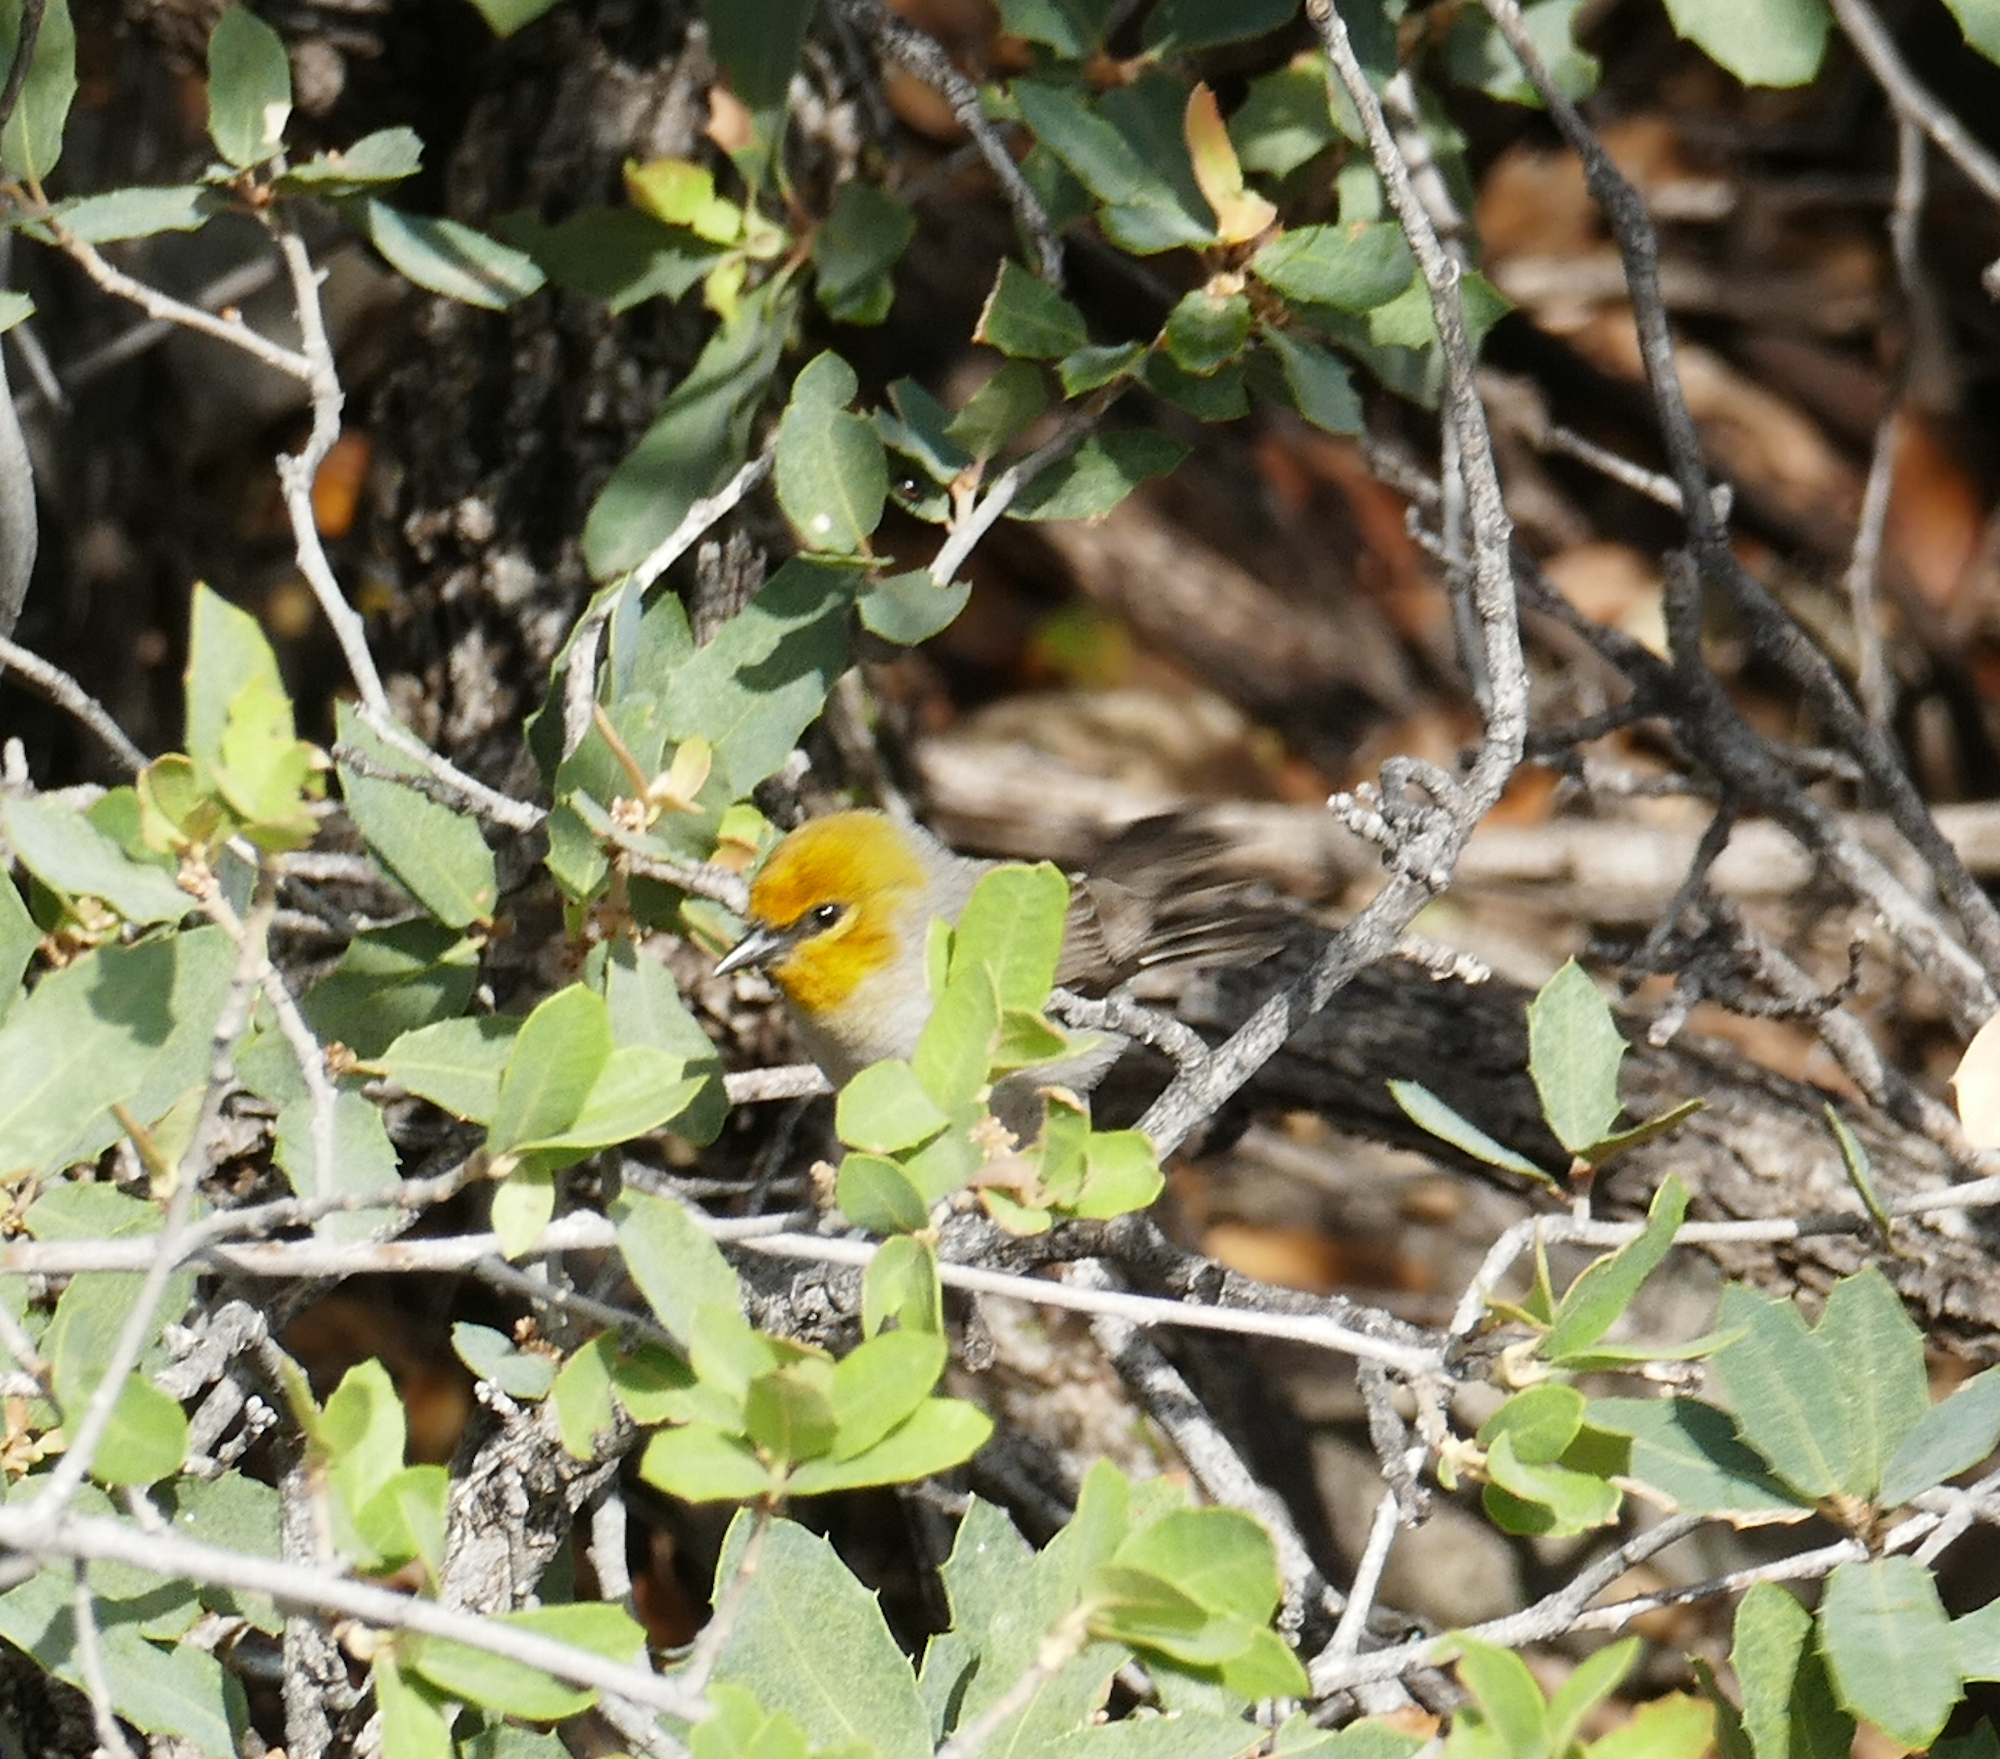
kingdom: Animalia
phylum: Chordata
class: Aves
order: Passeriformes
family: Remizidae
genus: Auriparus
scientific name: Auriparus flaviceps
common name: Verdin
